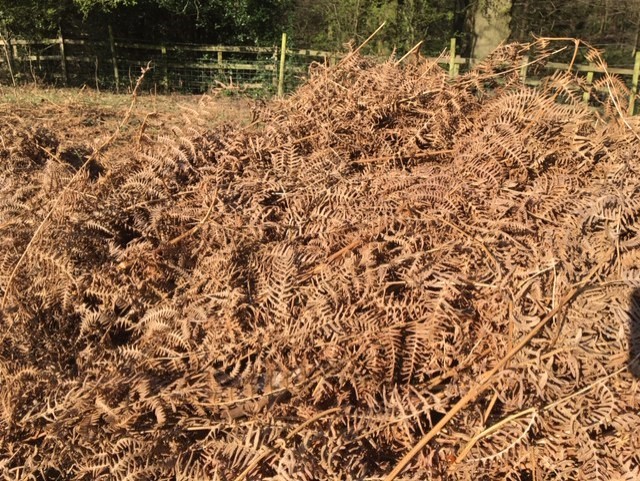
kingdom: Plantae
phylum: Tracheophyta
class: Polypodiopsida
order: Polypodiales
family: Dennstaedtiaceae
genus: Pteridium
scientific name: Pteridium aquilinum
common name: Bracken
